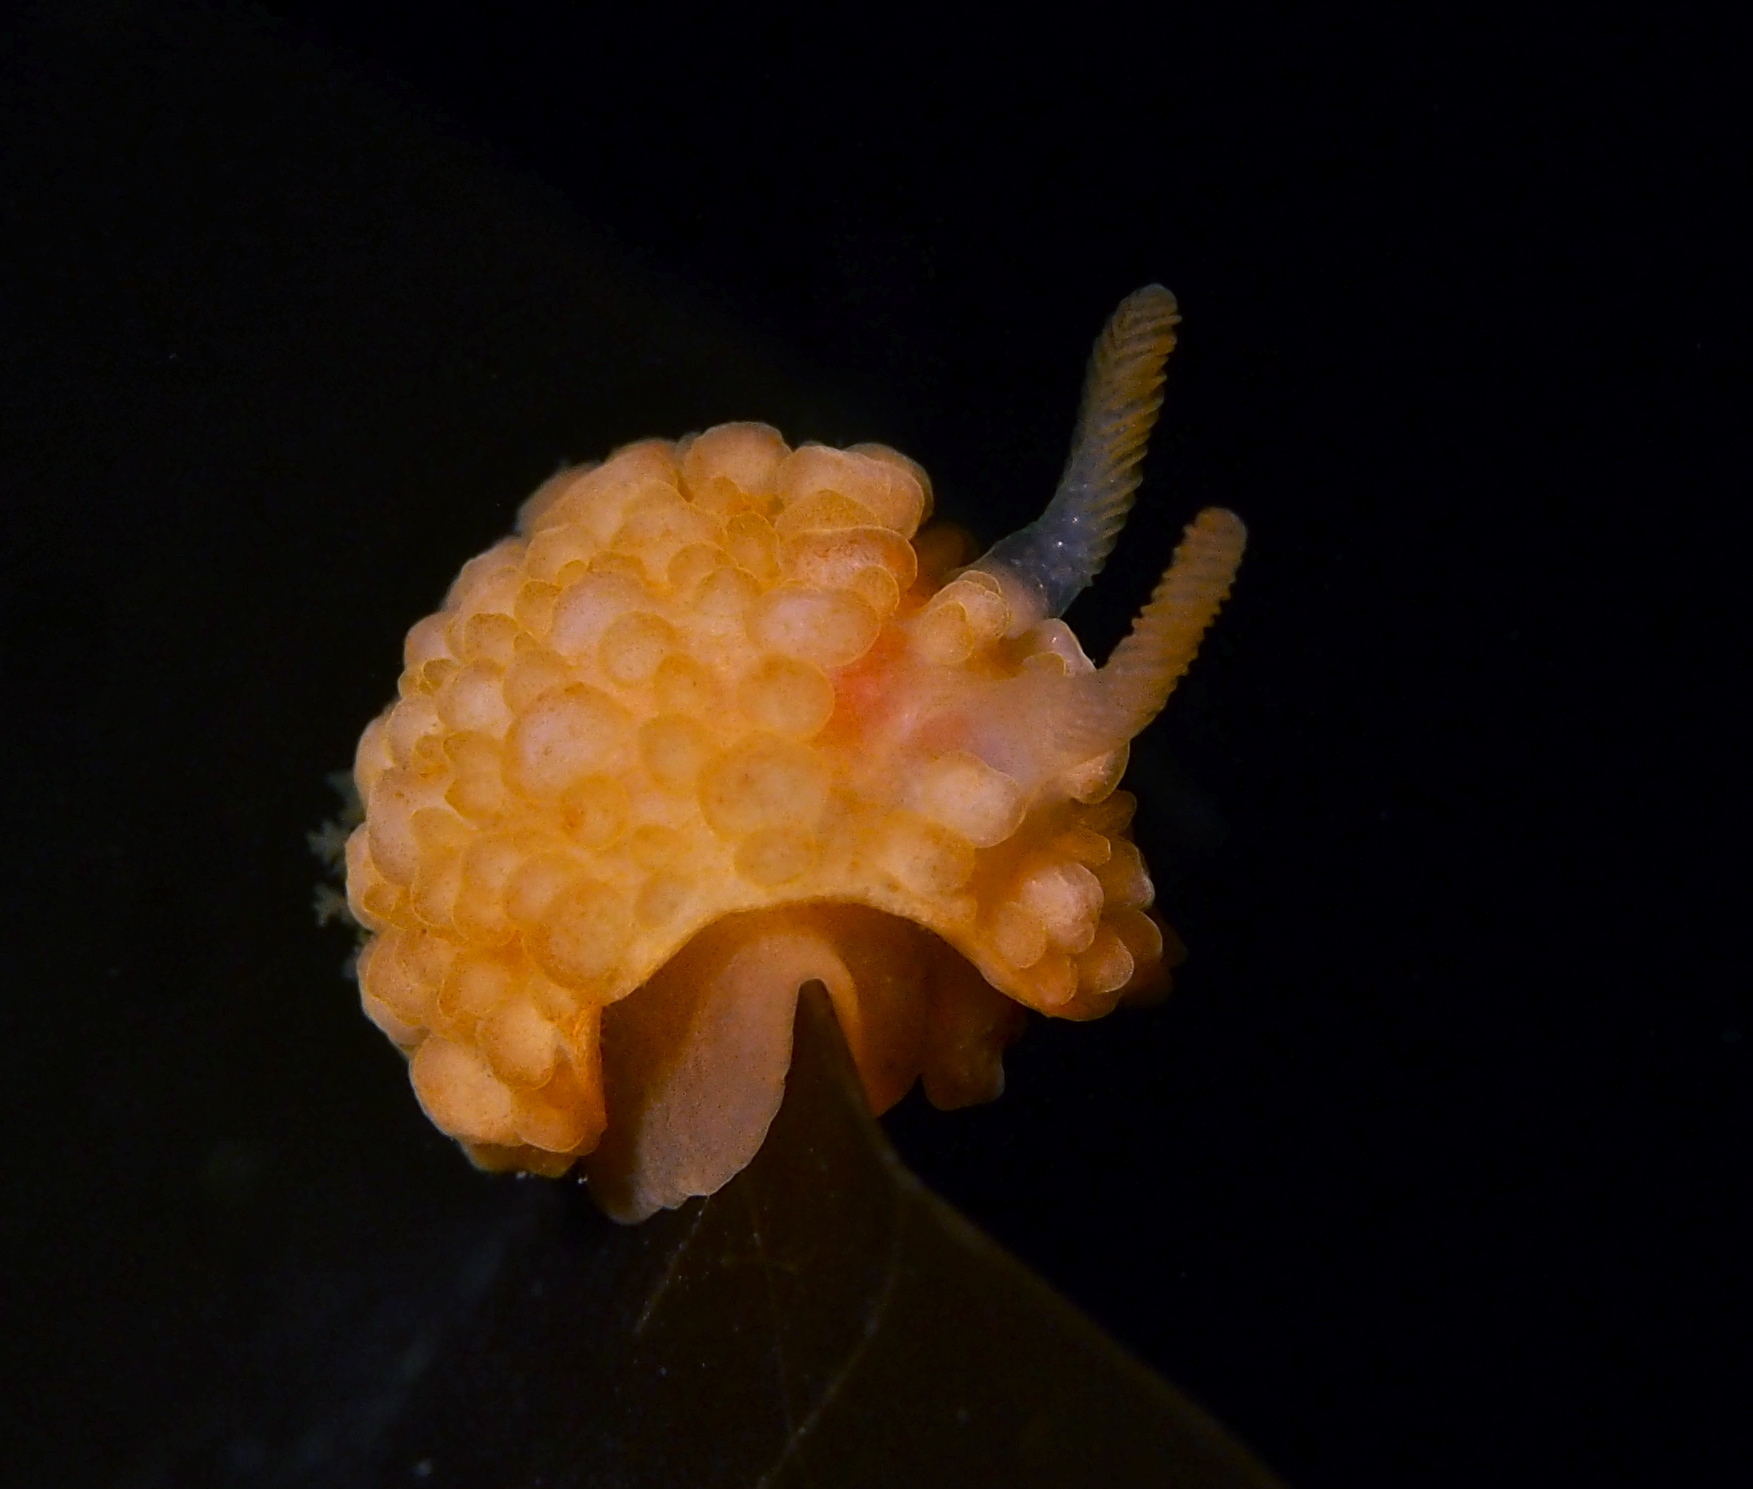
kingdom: Animalia
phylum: Mollusca
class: Gastropoda
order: Nudibranchia
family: Onchidorididae
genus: Adalaria
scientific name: Adalaria loveni
